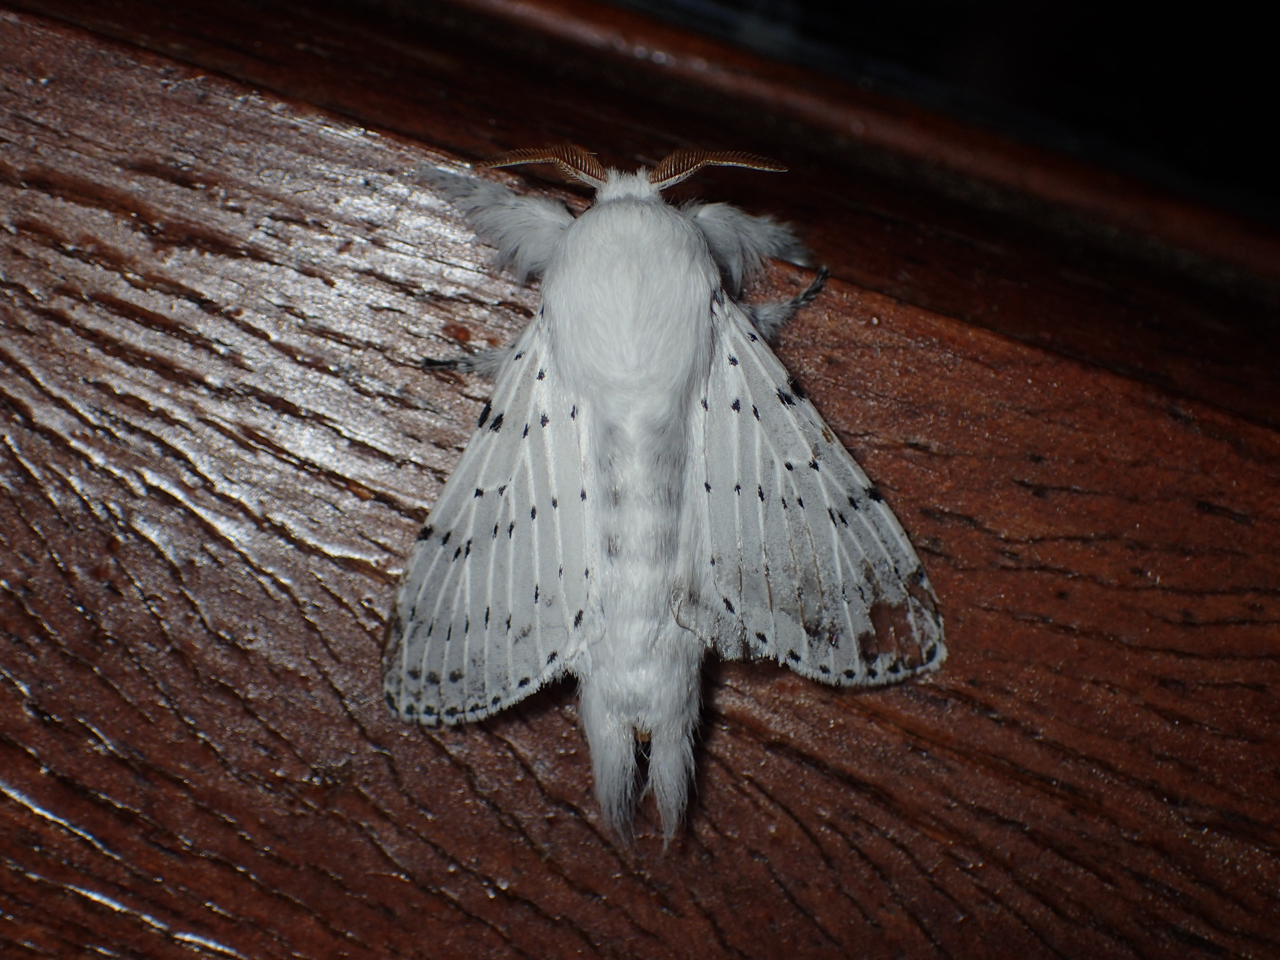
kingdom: Animalia
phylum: Arthropoda
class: Insecta
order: Lepidoptera
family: Lasiocampidae
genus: Artace
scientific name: Artace cribrarius
